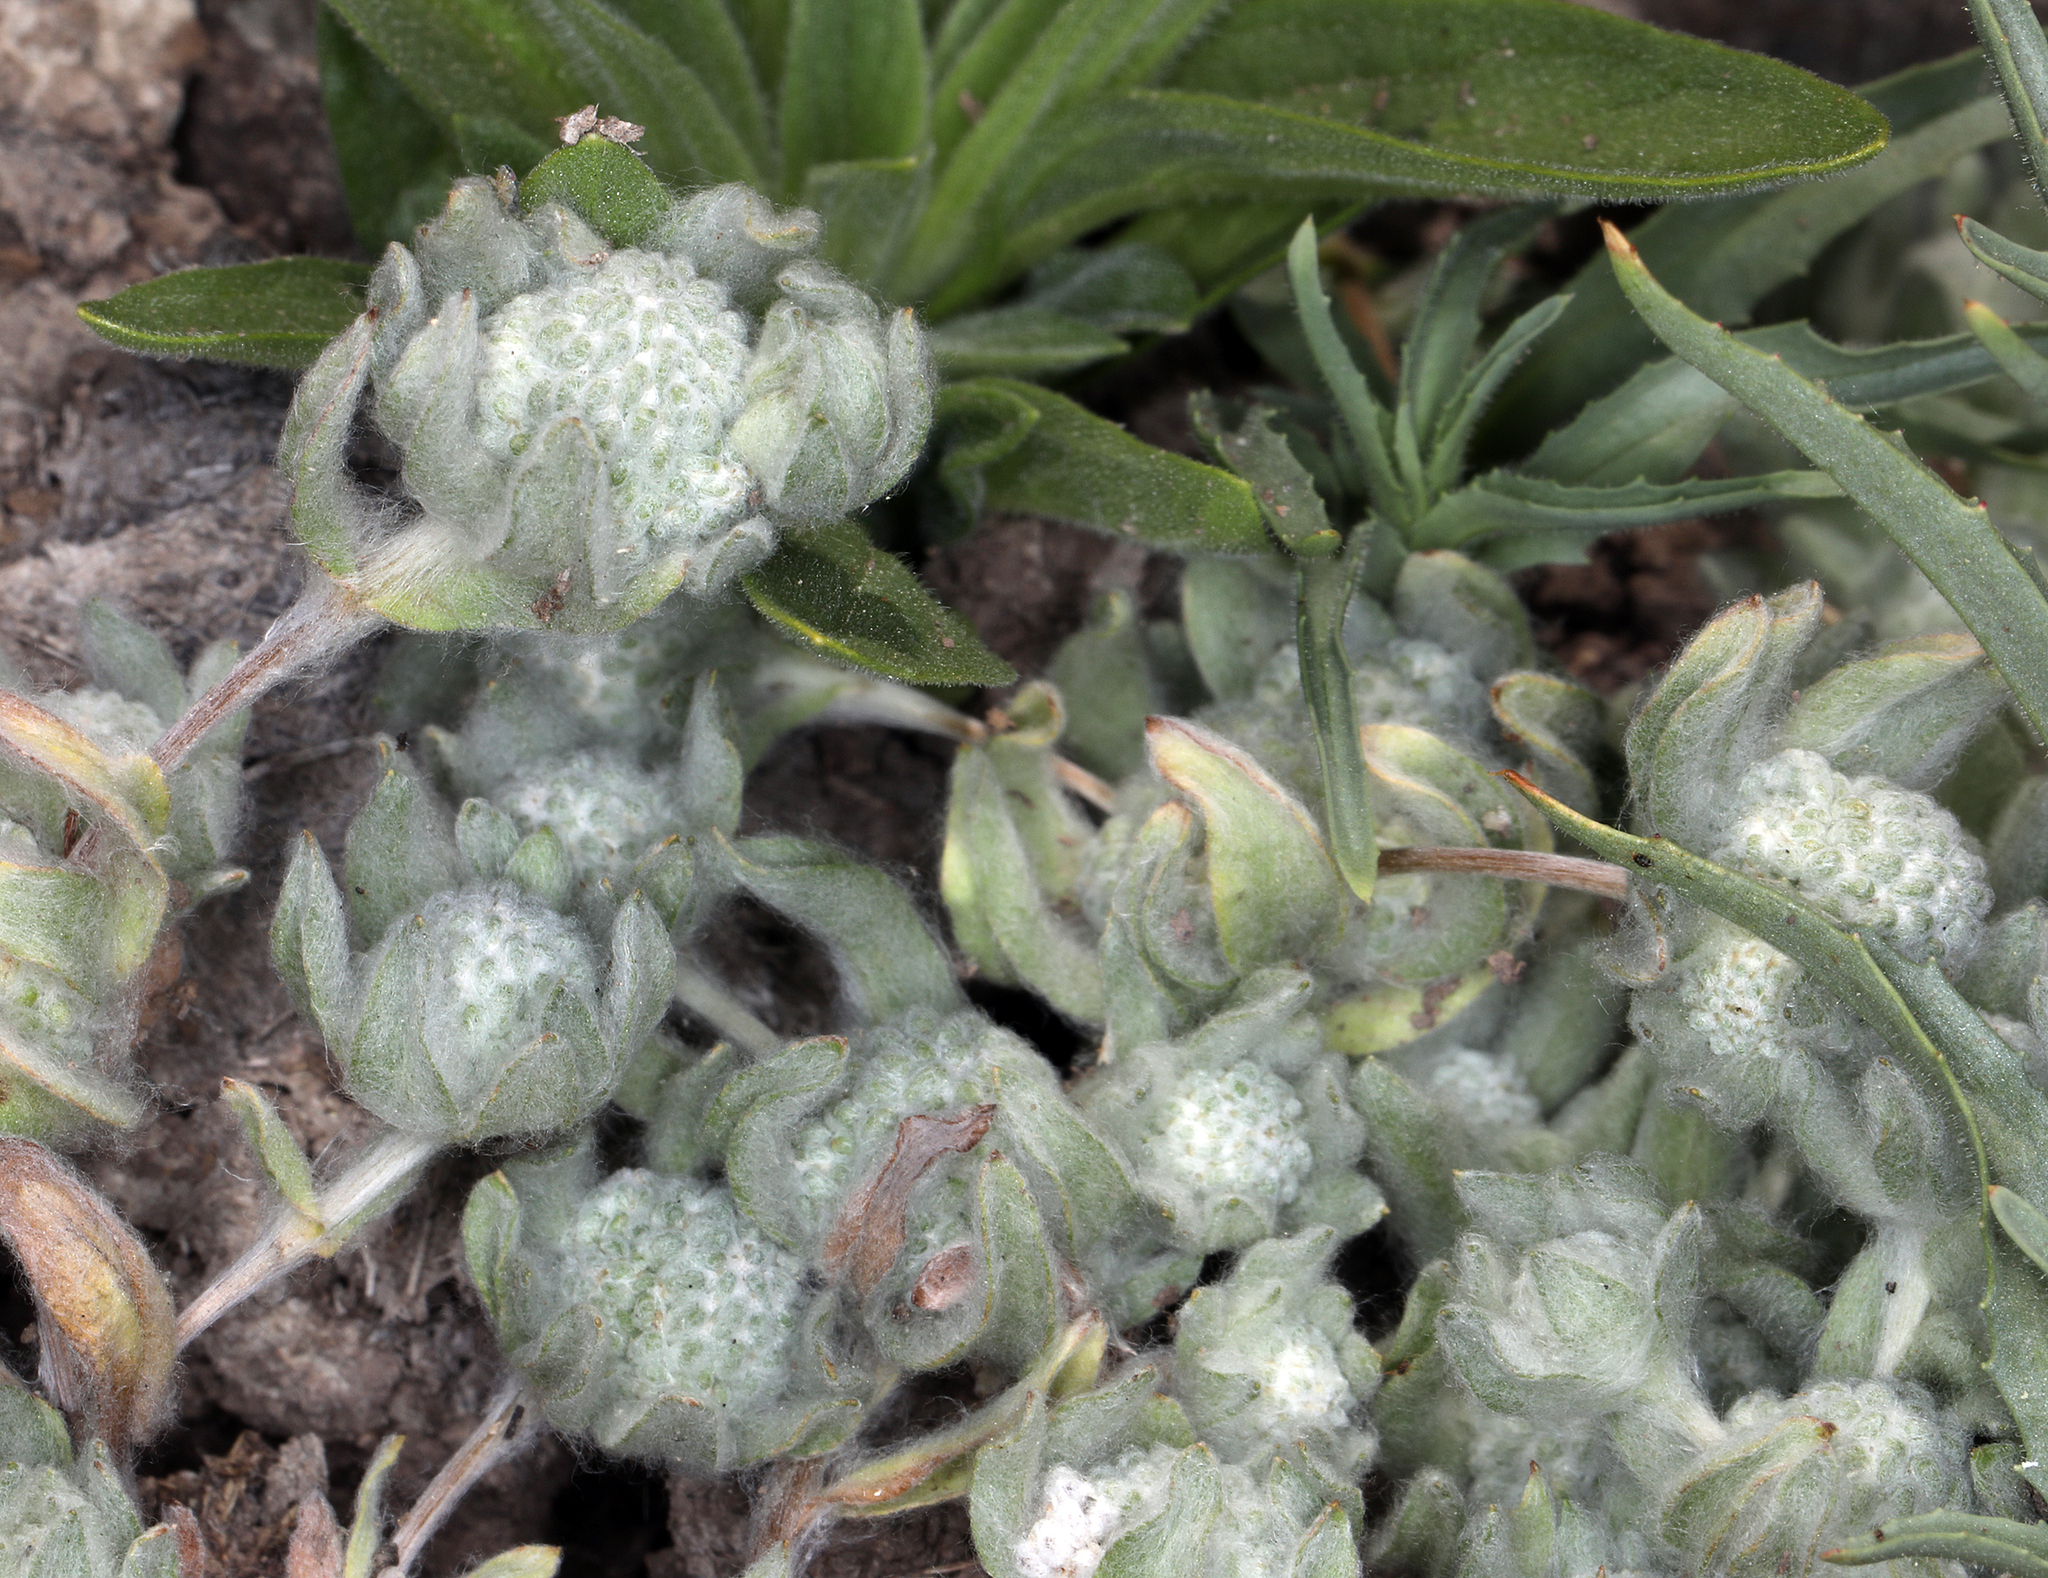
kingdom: Plantae
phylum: Tracheophyta
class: Magnoliopsida
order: Asterales
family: Asteraceae
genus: Psilocarphus
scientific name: Psilocarphus brevissimus
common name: Dwarf woollyheads
